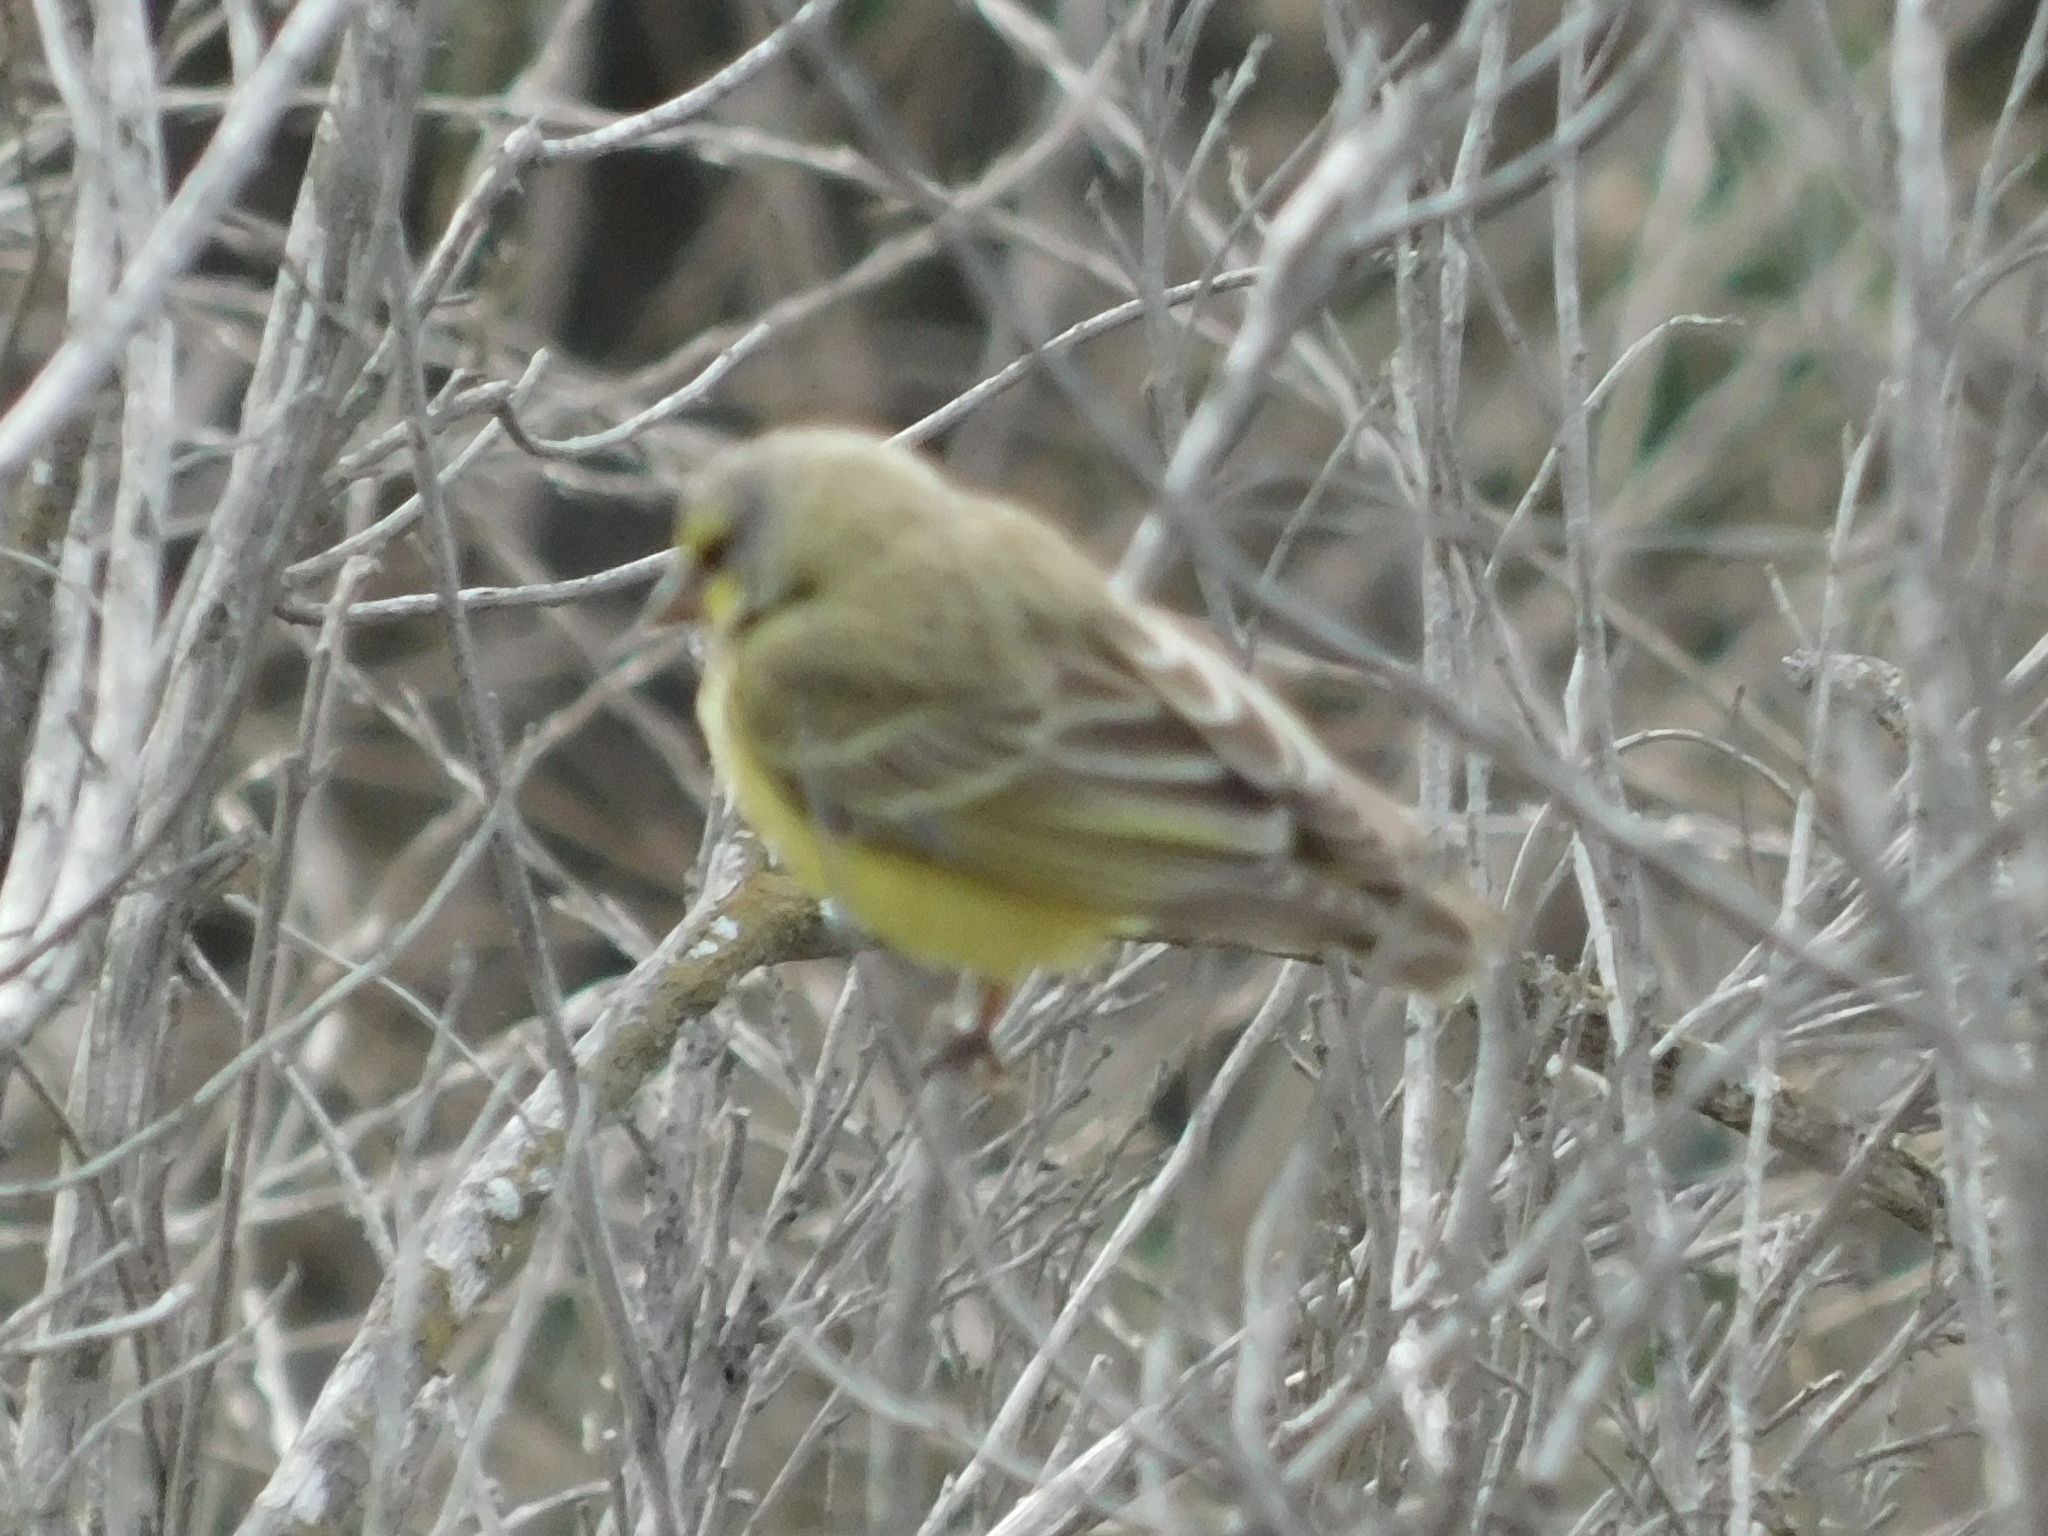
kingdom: Animalia
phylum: Chordata
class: Aves
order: Passeriformes
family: Fringillidae
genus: Crithagra
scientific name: Crithagra mozambica
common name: Yellow-fronted canary
